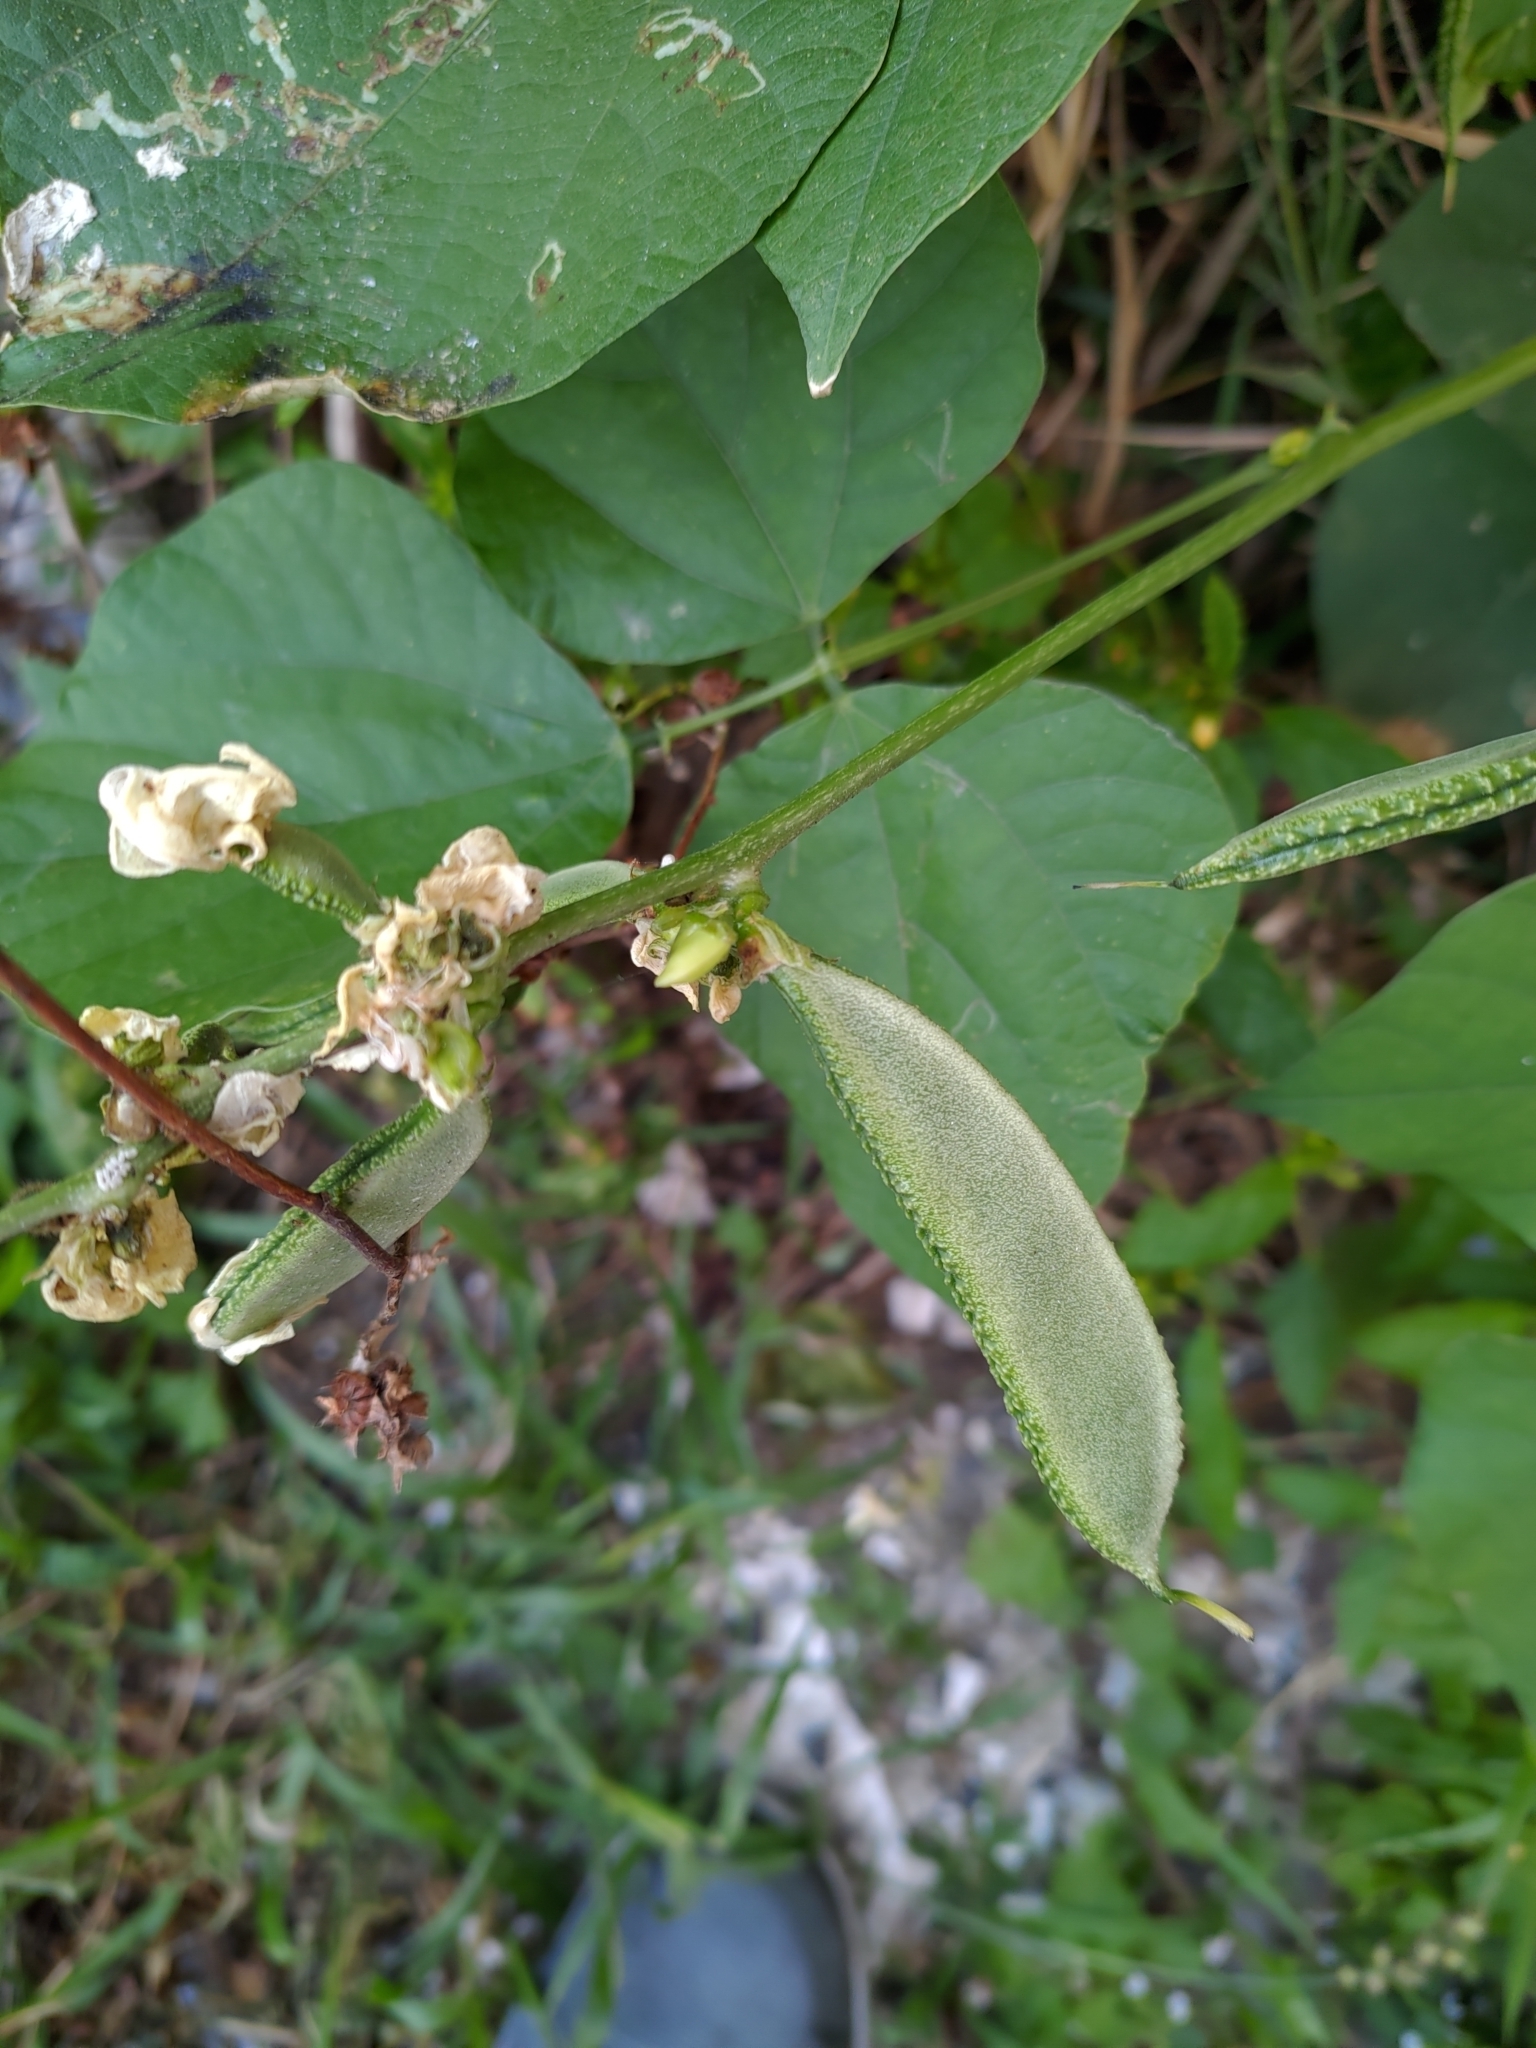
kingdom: Plantae
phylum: Tracheophyta
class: Magnoliopsida
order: Fabales
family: Fabaceae
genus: Lablab
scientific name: Lablab purpureus
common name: Lablab-bean
